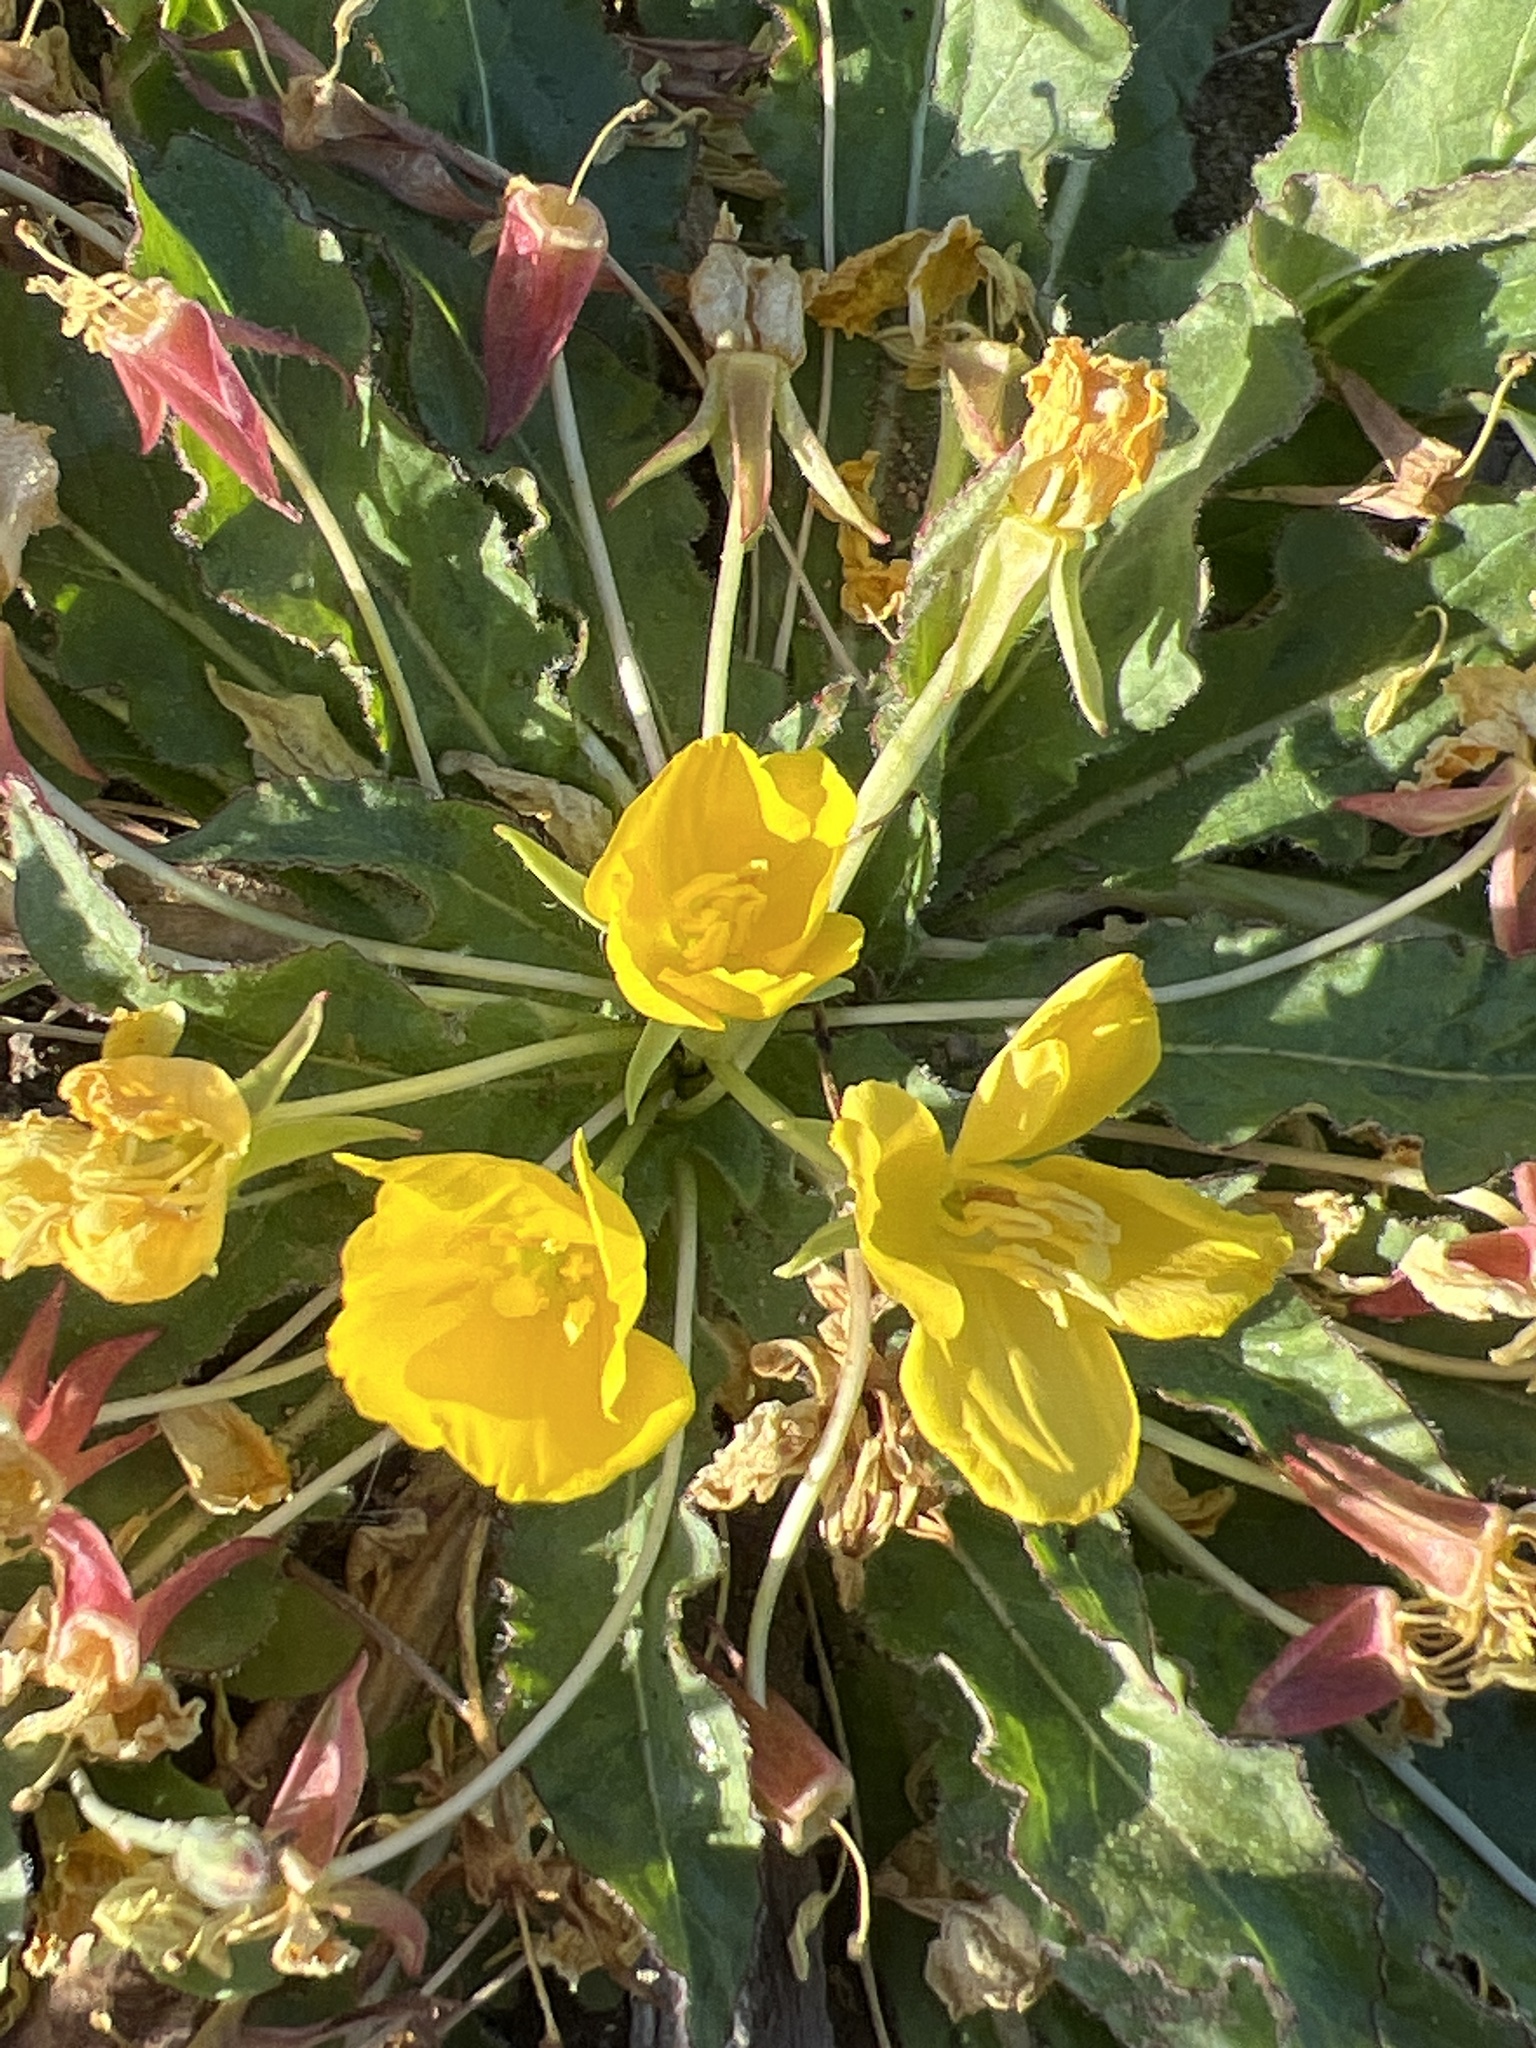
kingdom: Plantae
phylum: Tracheophyta
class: Magnoliopsida
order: Myrtales
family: Onagraceae
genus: Taraxia
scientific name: Taraxia ovata
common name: Goldeneggs
